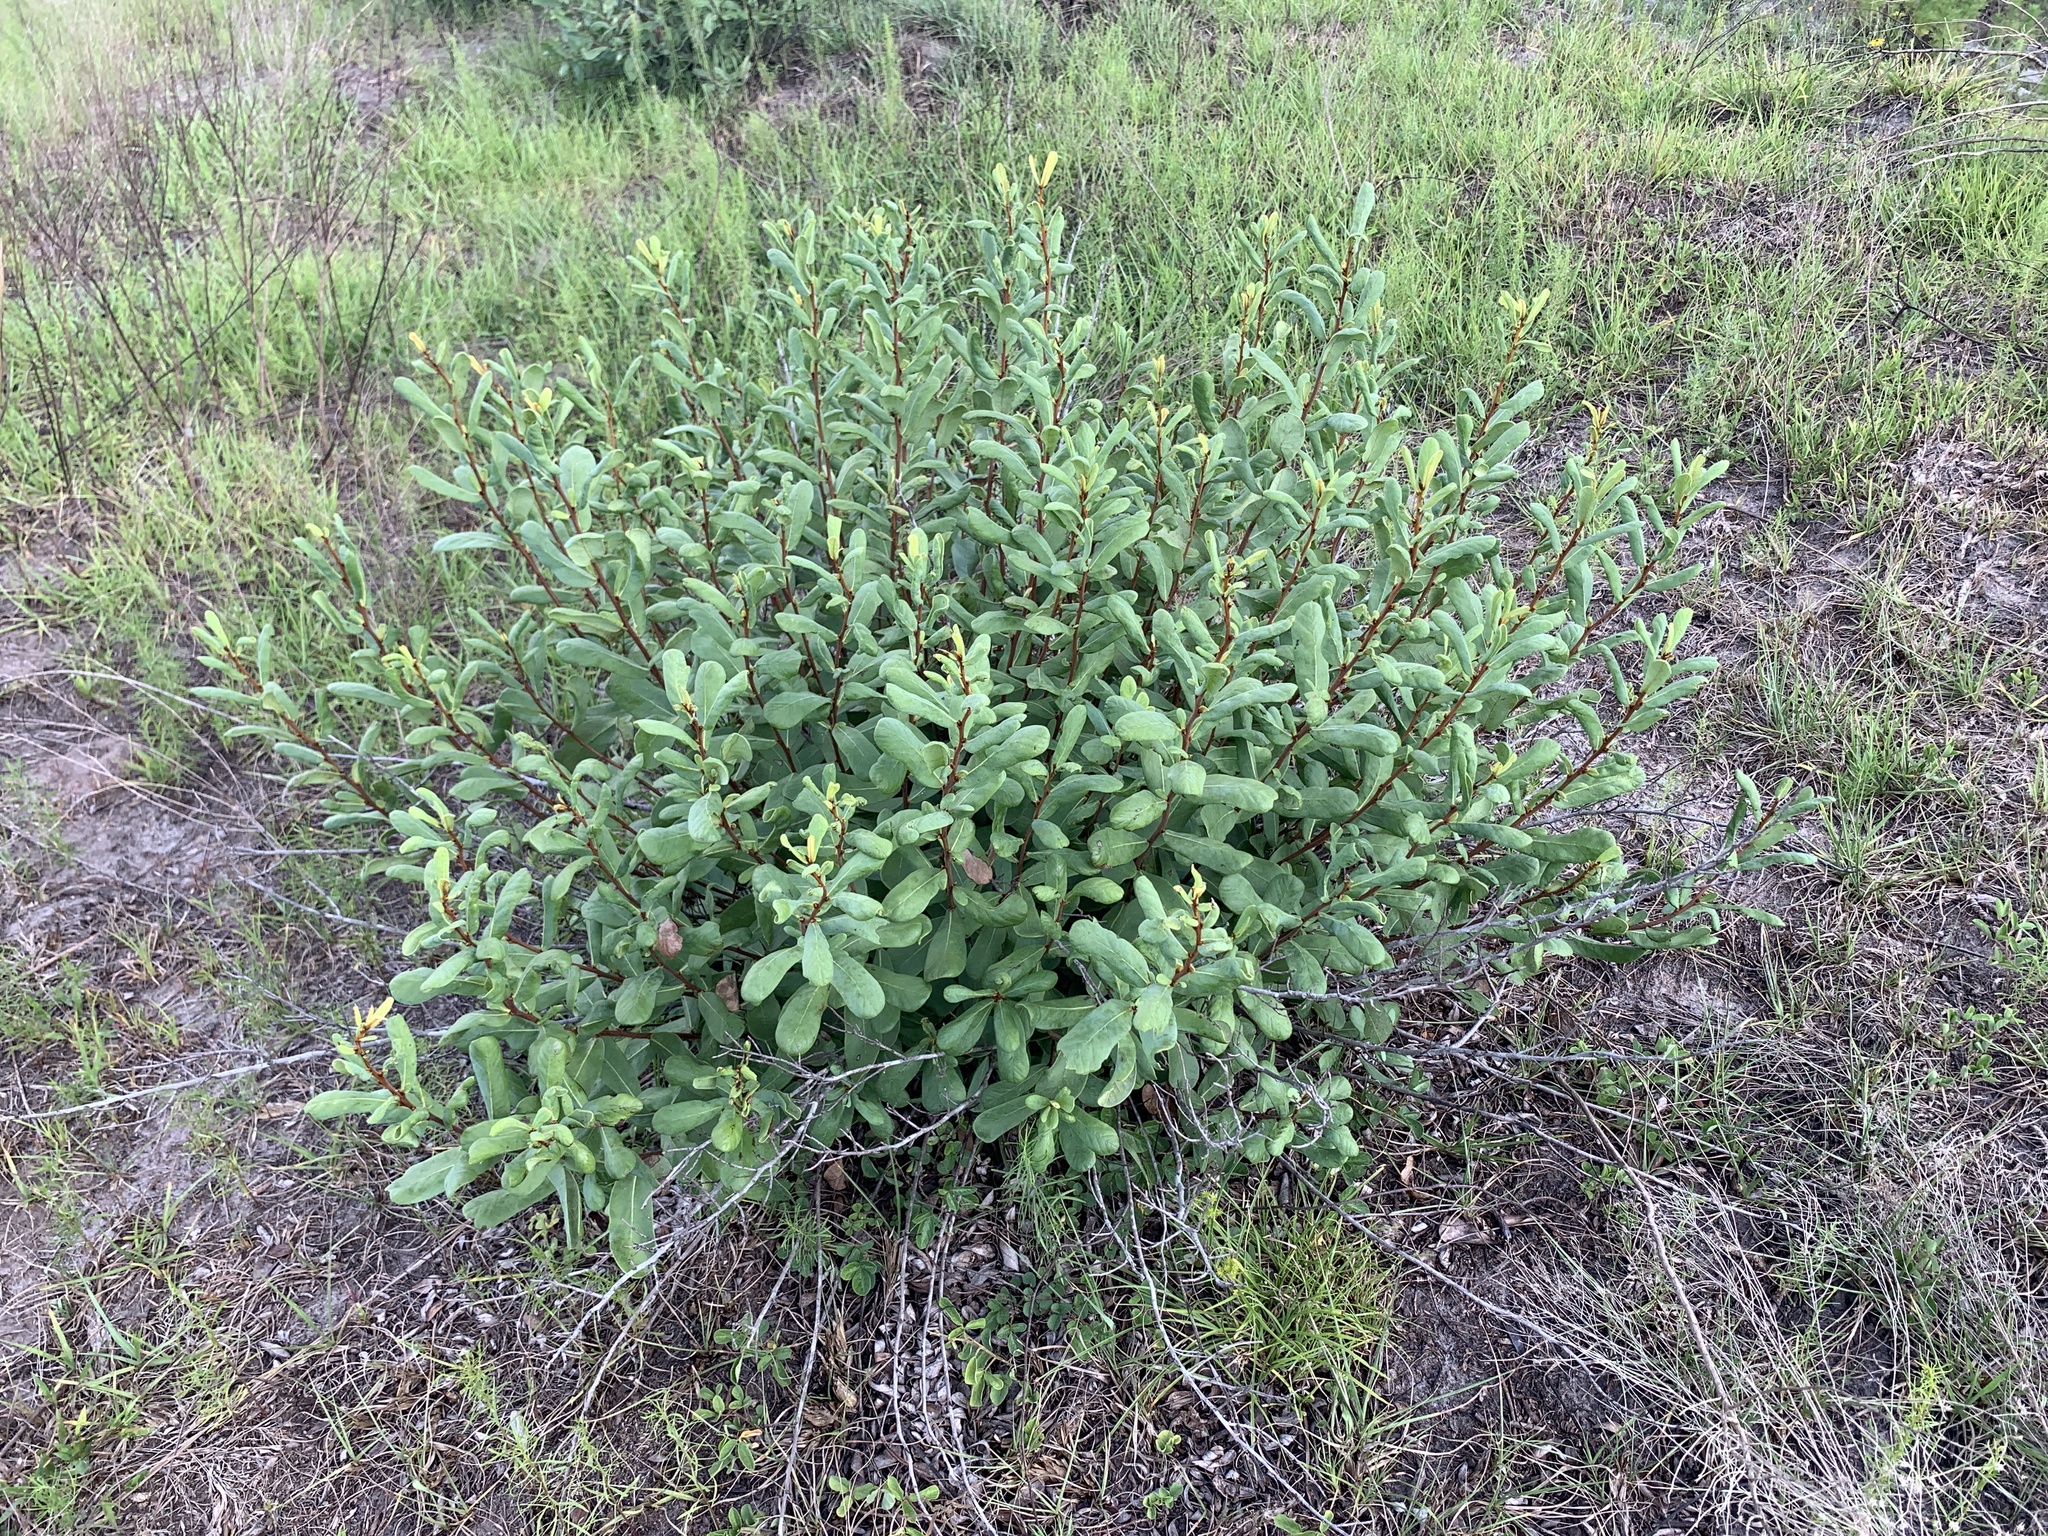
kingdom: Plantae
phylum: Tracheophyta
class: Magnoliopsida
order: Magnoliales
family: Annonaceae
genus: Asimina
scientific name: Asimina reticulata
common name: Flag pawpaw
